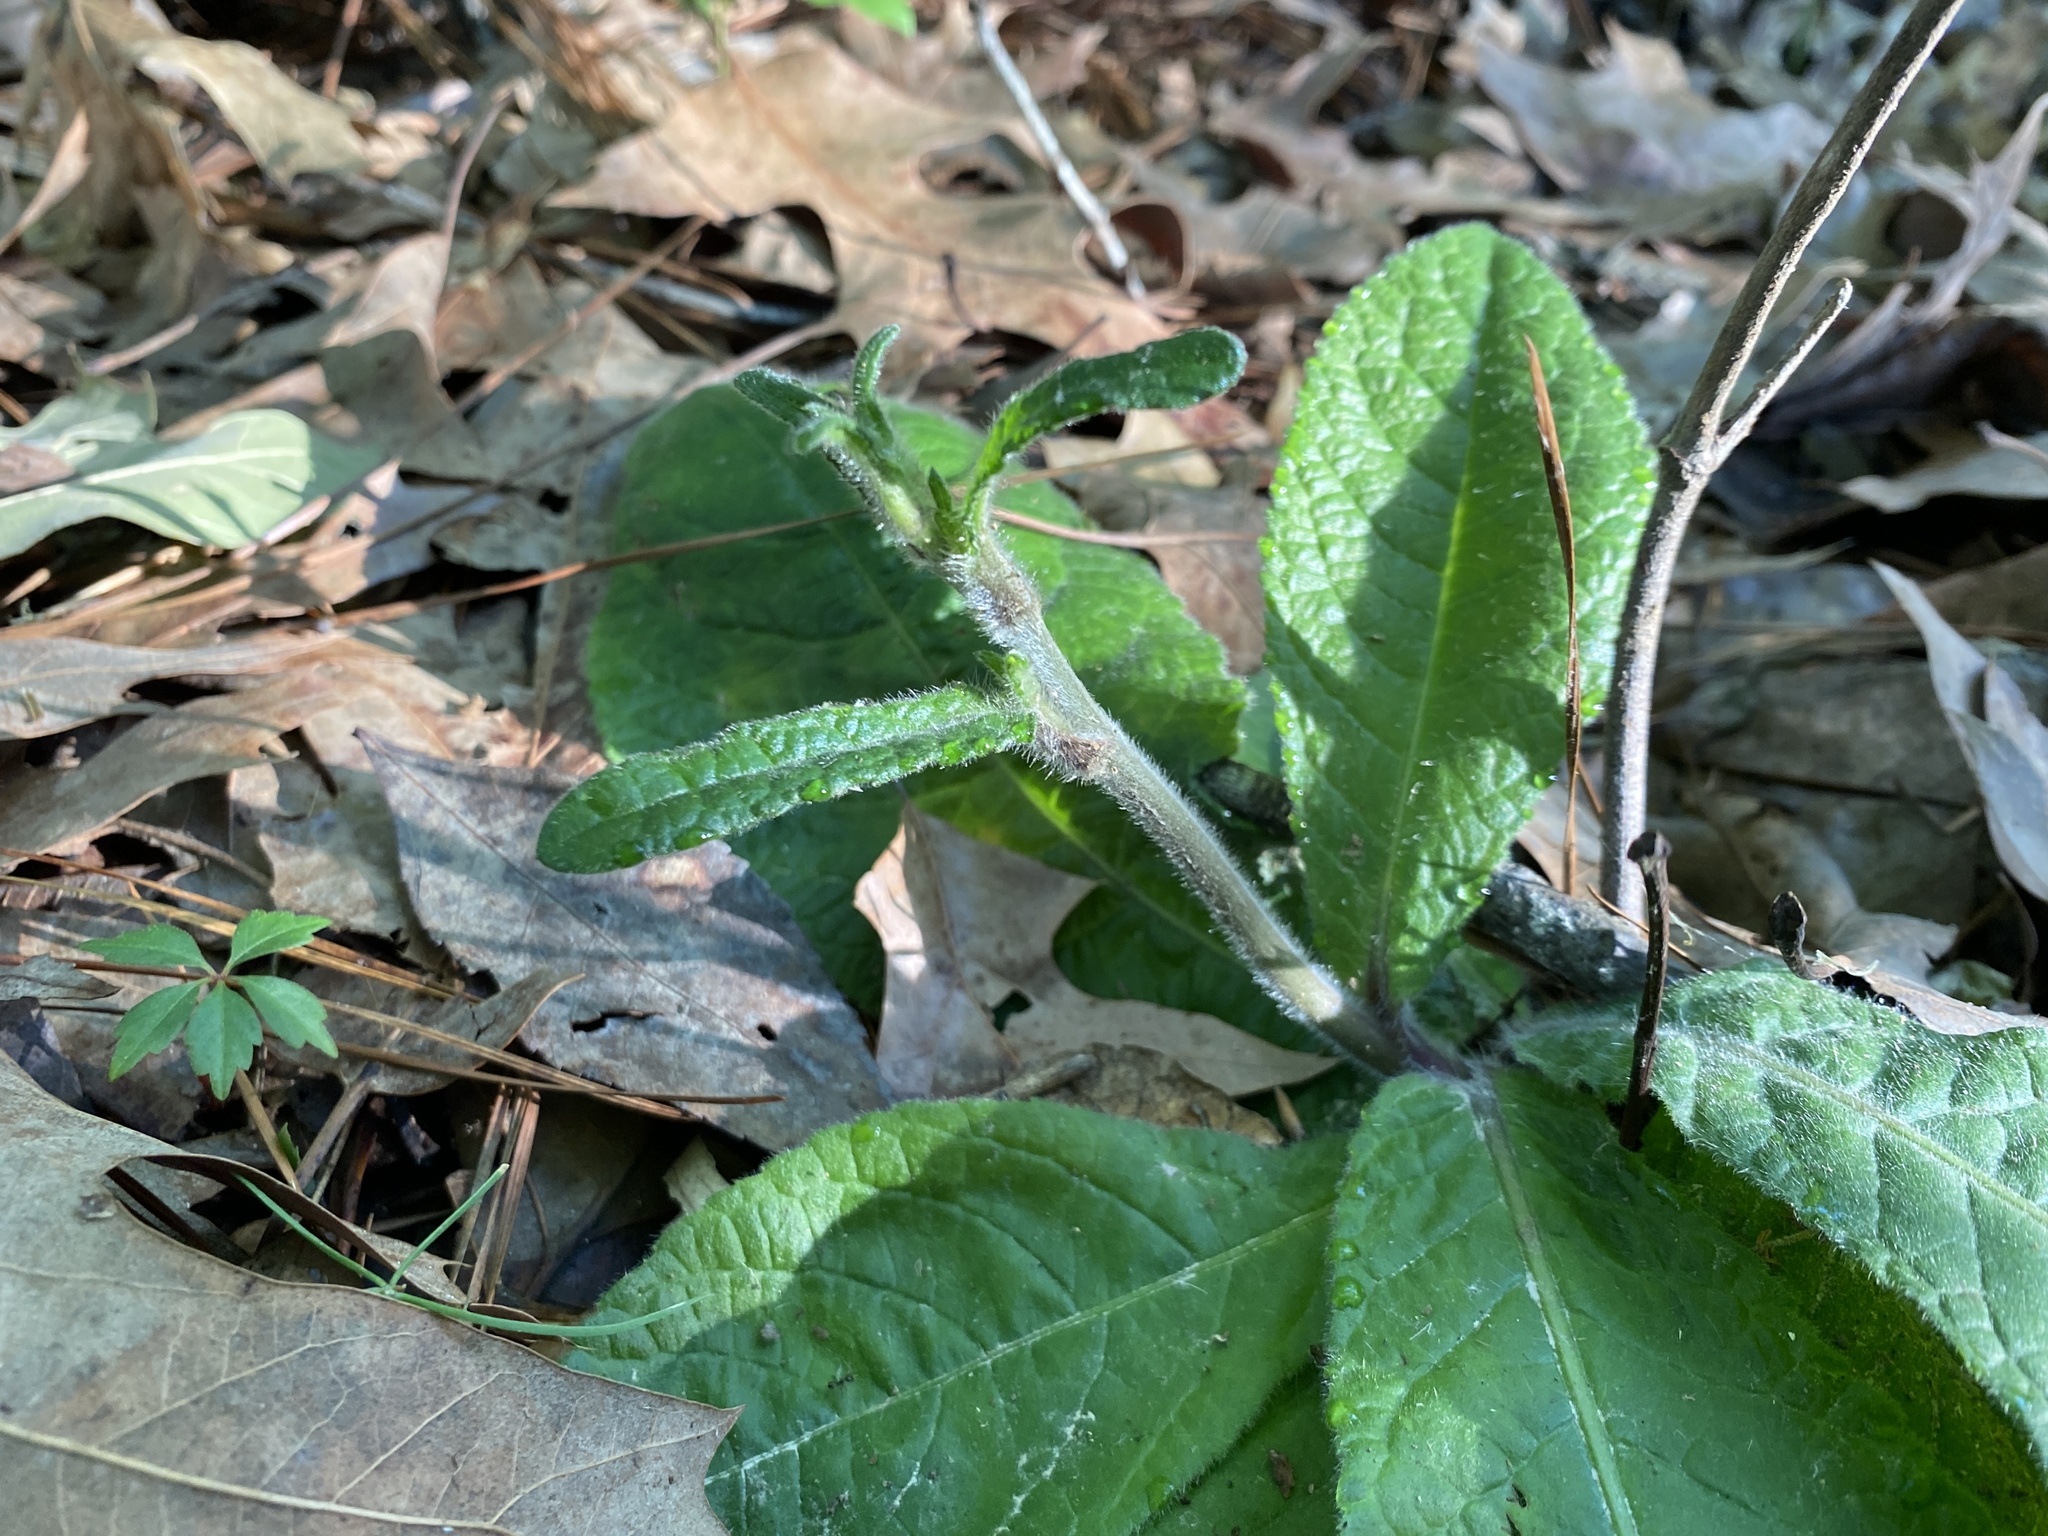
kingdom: Plantae
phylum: Tracheophyta
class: Magnoliopsida
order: Asterales
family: Asteraceae
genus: Elephantopus
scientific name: Elephantopus tomentosus
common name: Tobacco-weed
